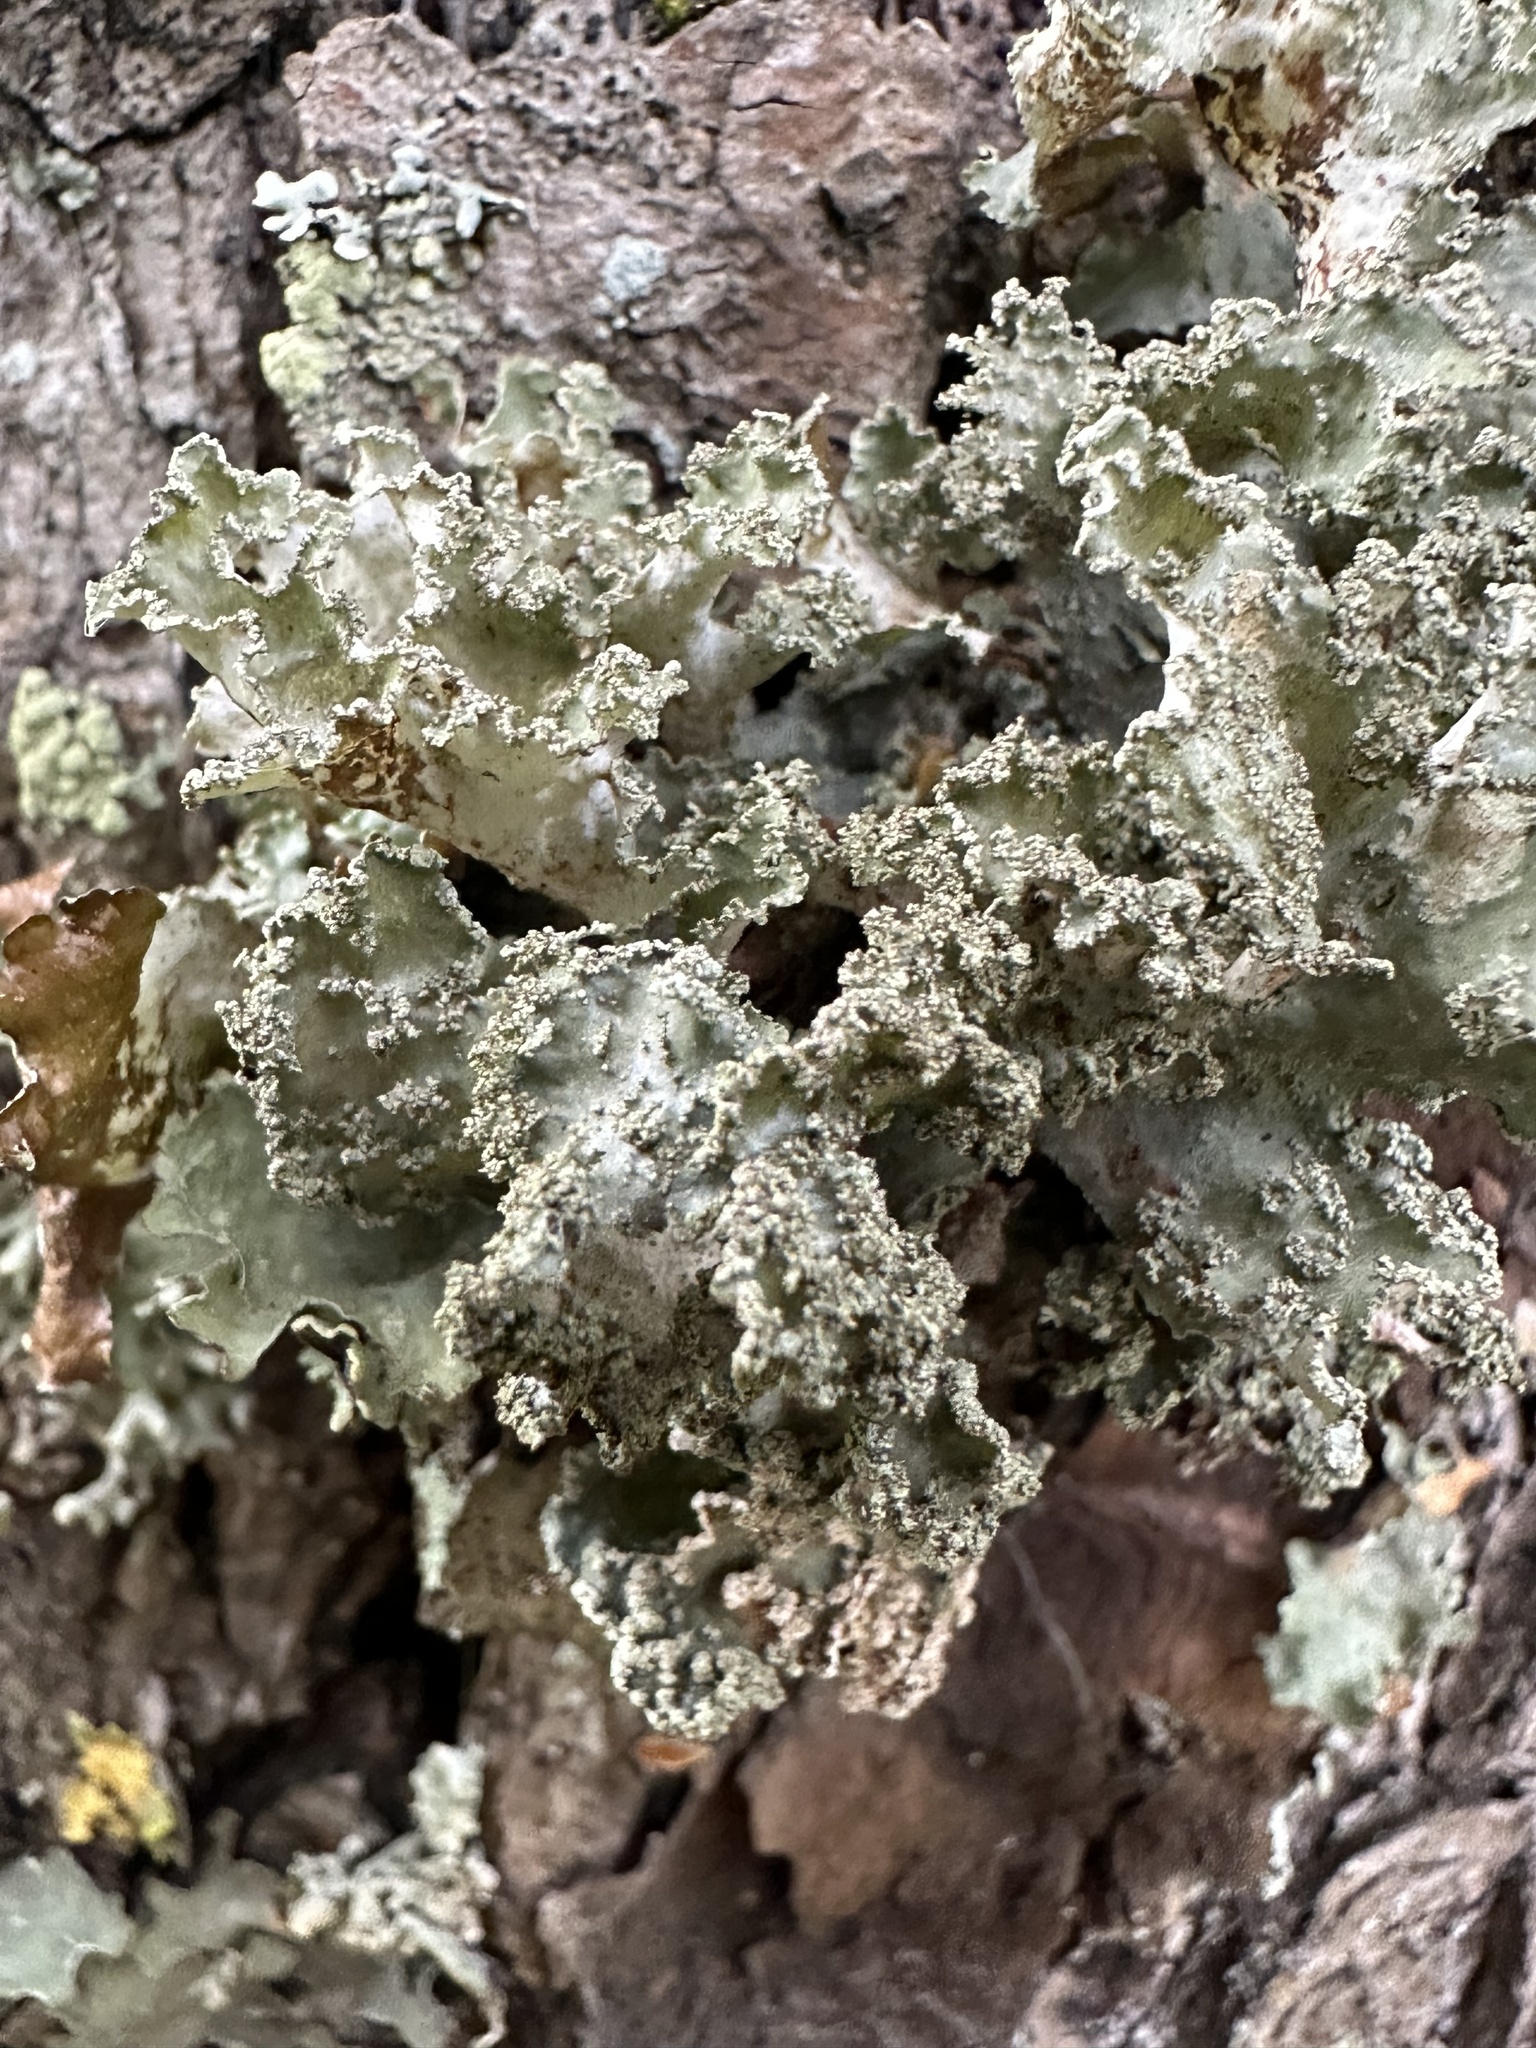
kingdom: Fungi
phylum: Ascomycota
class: Lecanoromycetes
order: Lecanorales
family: Parmeliaceae
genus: Platismatia
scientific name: Platismatia glauca
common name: Varied rag lichen
